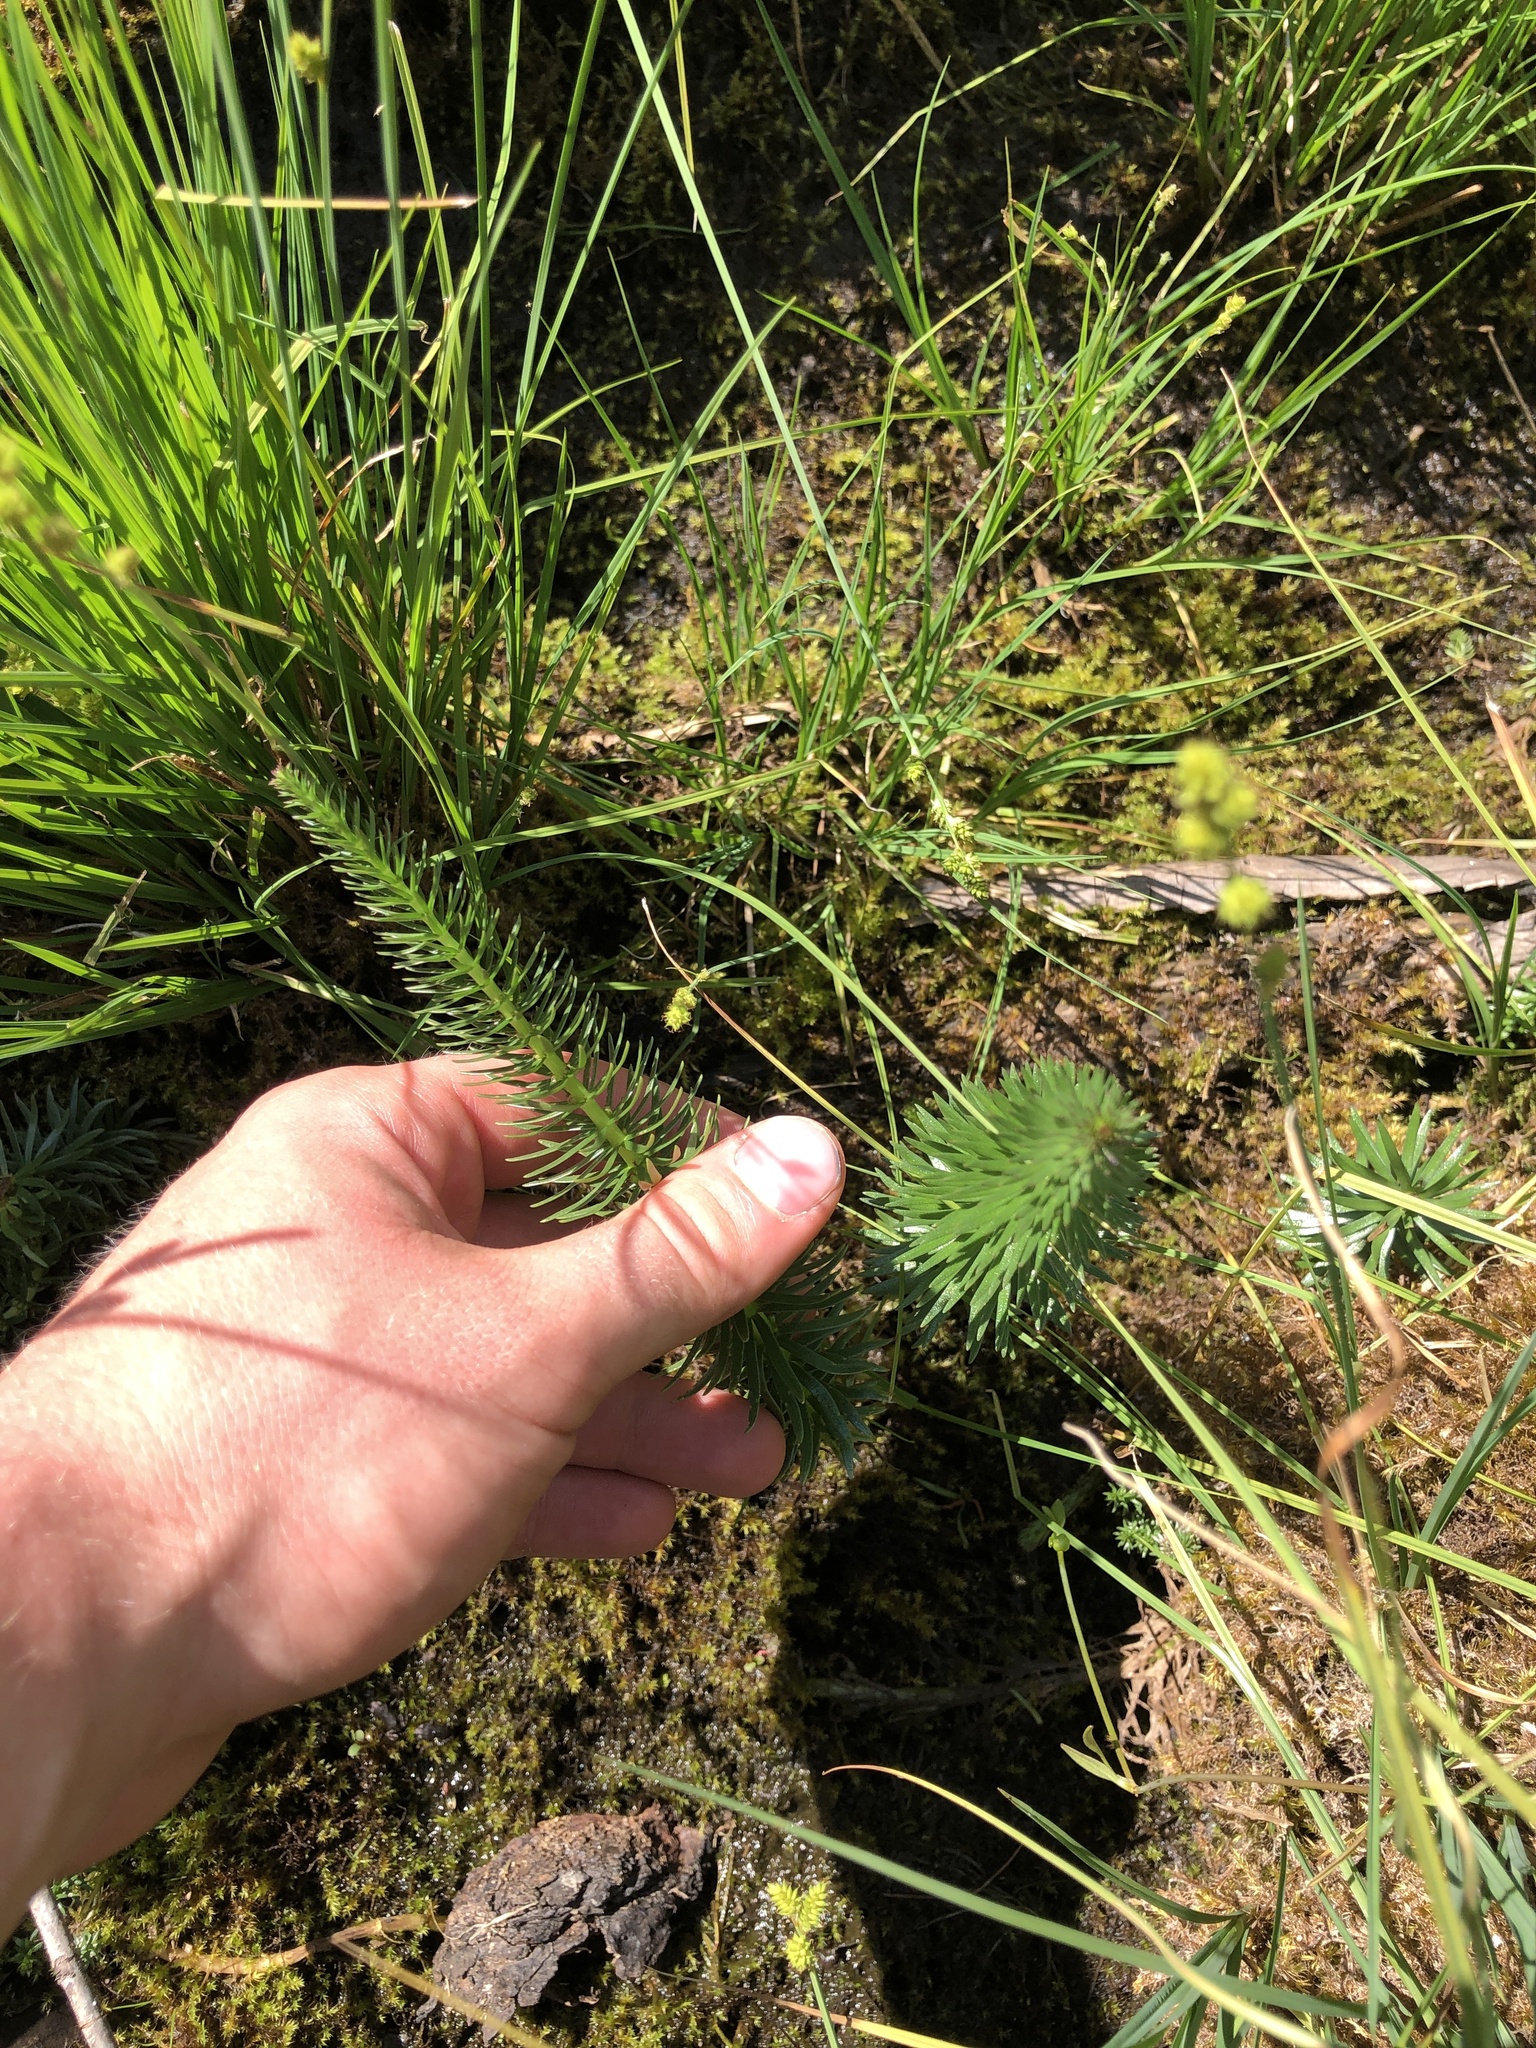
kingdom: Plantae
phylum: Tracheophyta
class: Magnoliopsida
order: Lamiales
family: Plantaginaceae
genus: Hippuris
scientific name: Hippuris vulgaris
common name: Mare's-tail
